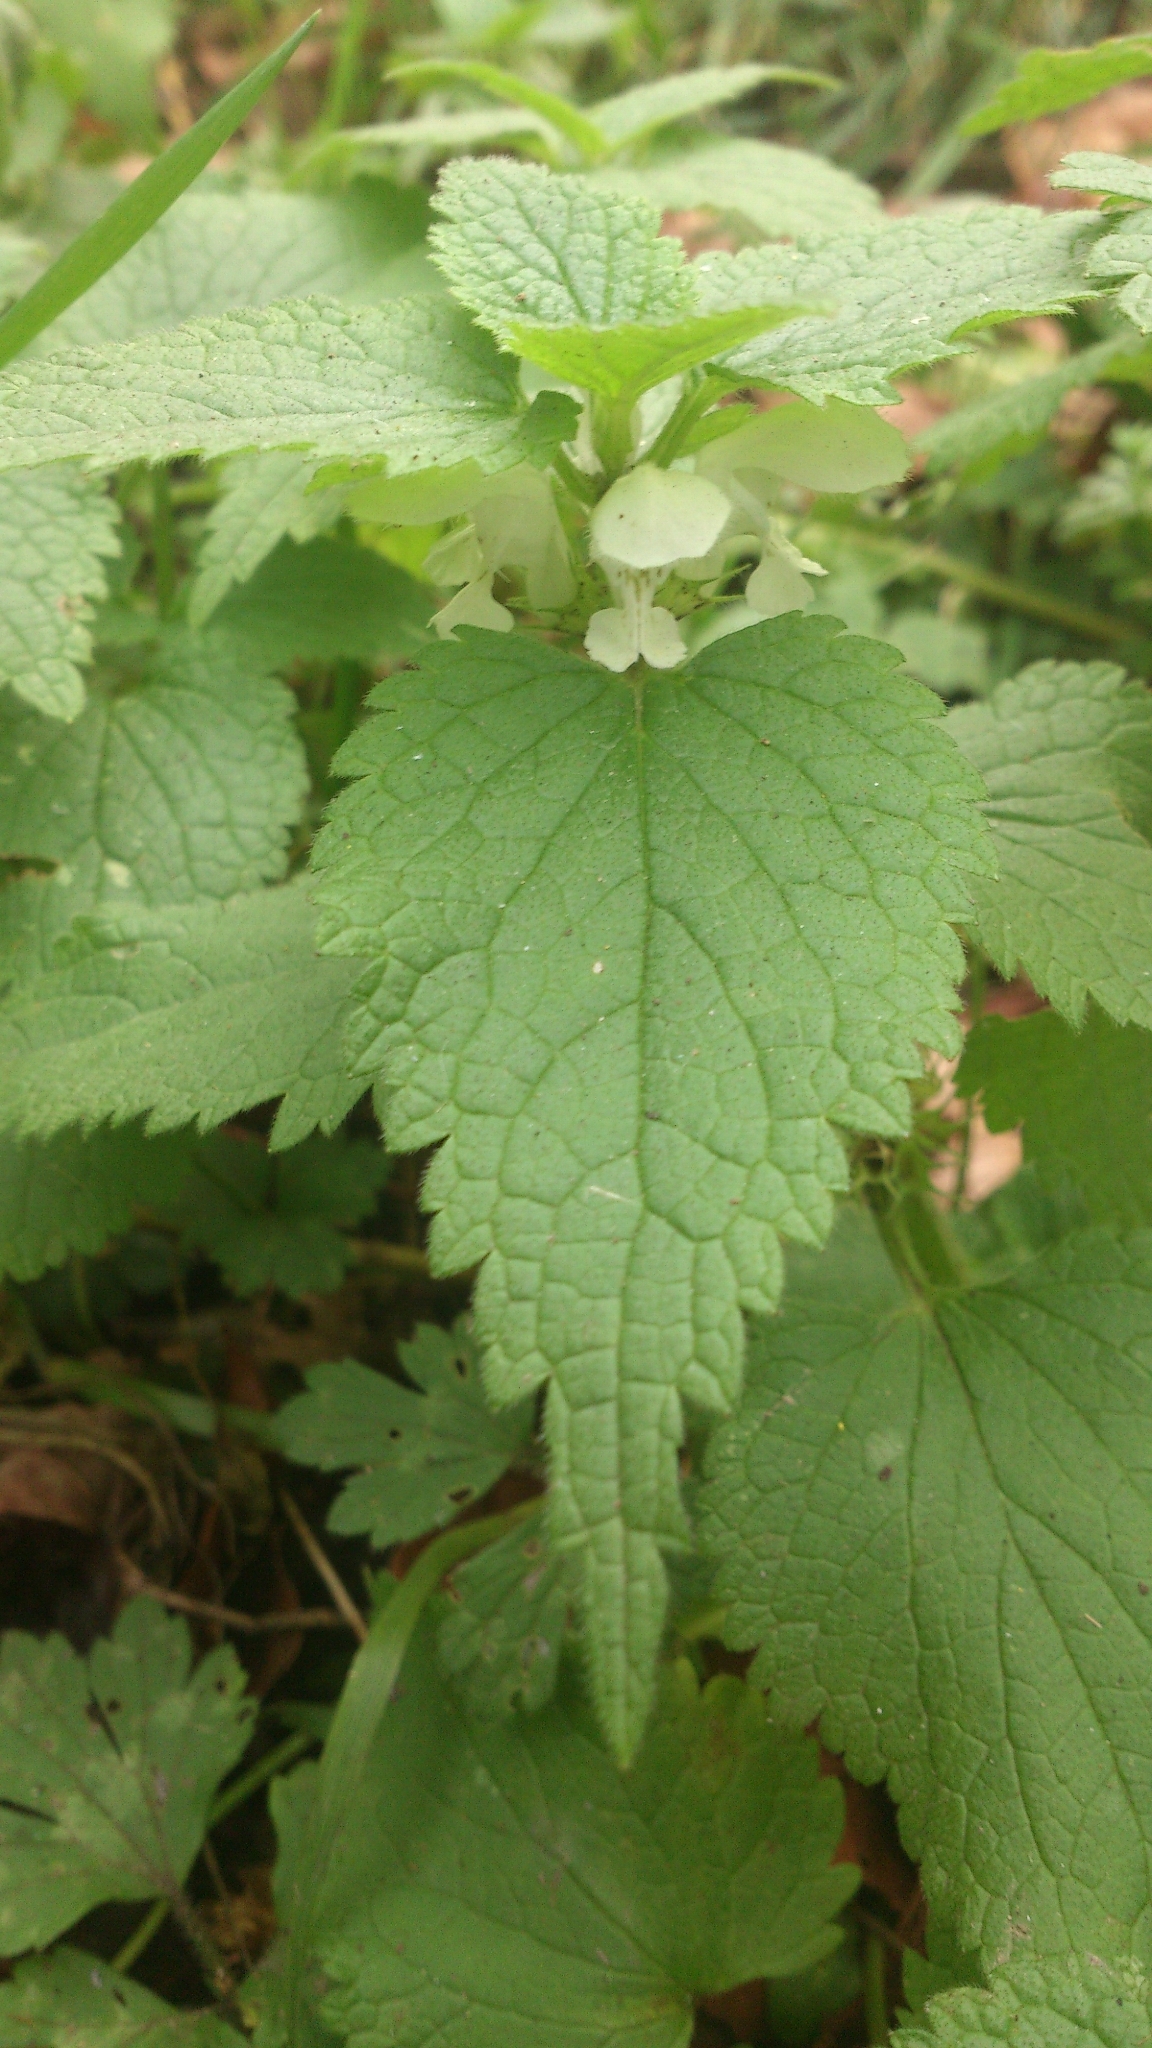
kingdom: Plantae
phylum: Tracheophyta
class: Magnoliopsida
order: Lamiales
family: Lamiaceae
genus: Lamium
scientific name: Lamium album
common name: White dead-nettle
